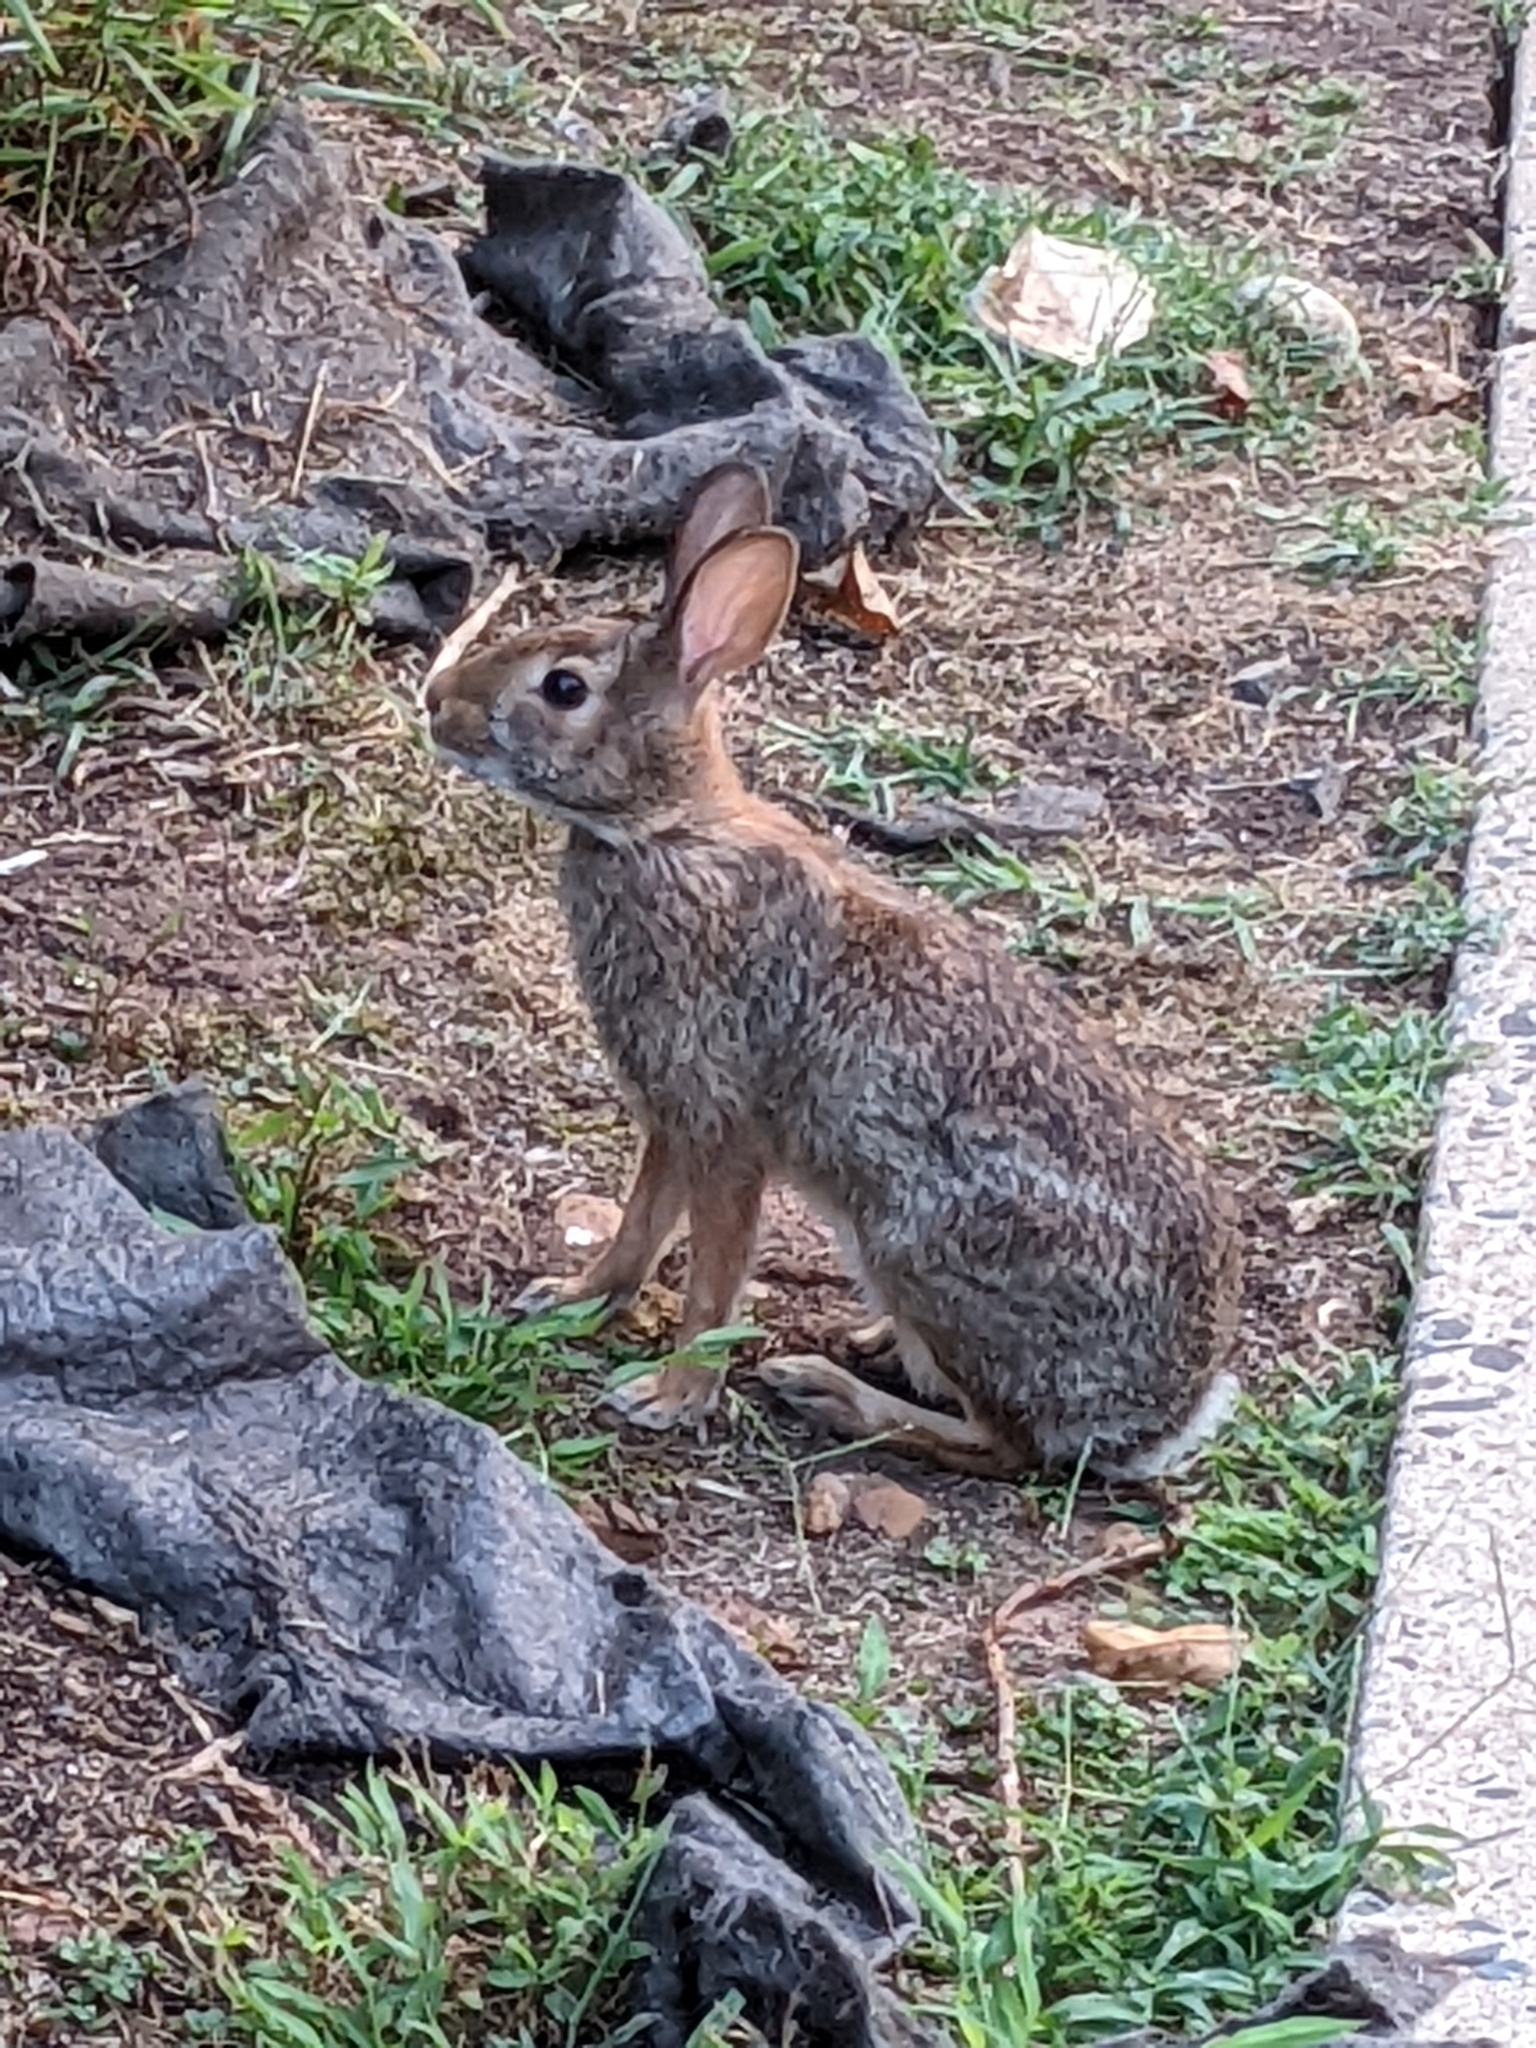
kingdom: Animalia
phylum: Chordata
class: Mammalia
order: Lagomorpha
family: Leporidae
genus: Sylvilagus
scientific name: Sylvilagus floridanus
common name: Eastern cottontail
